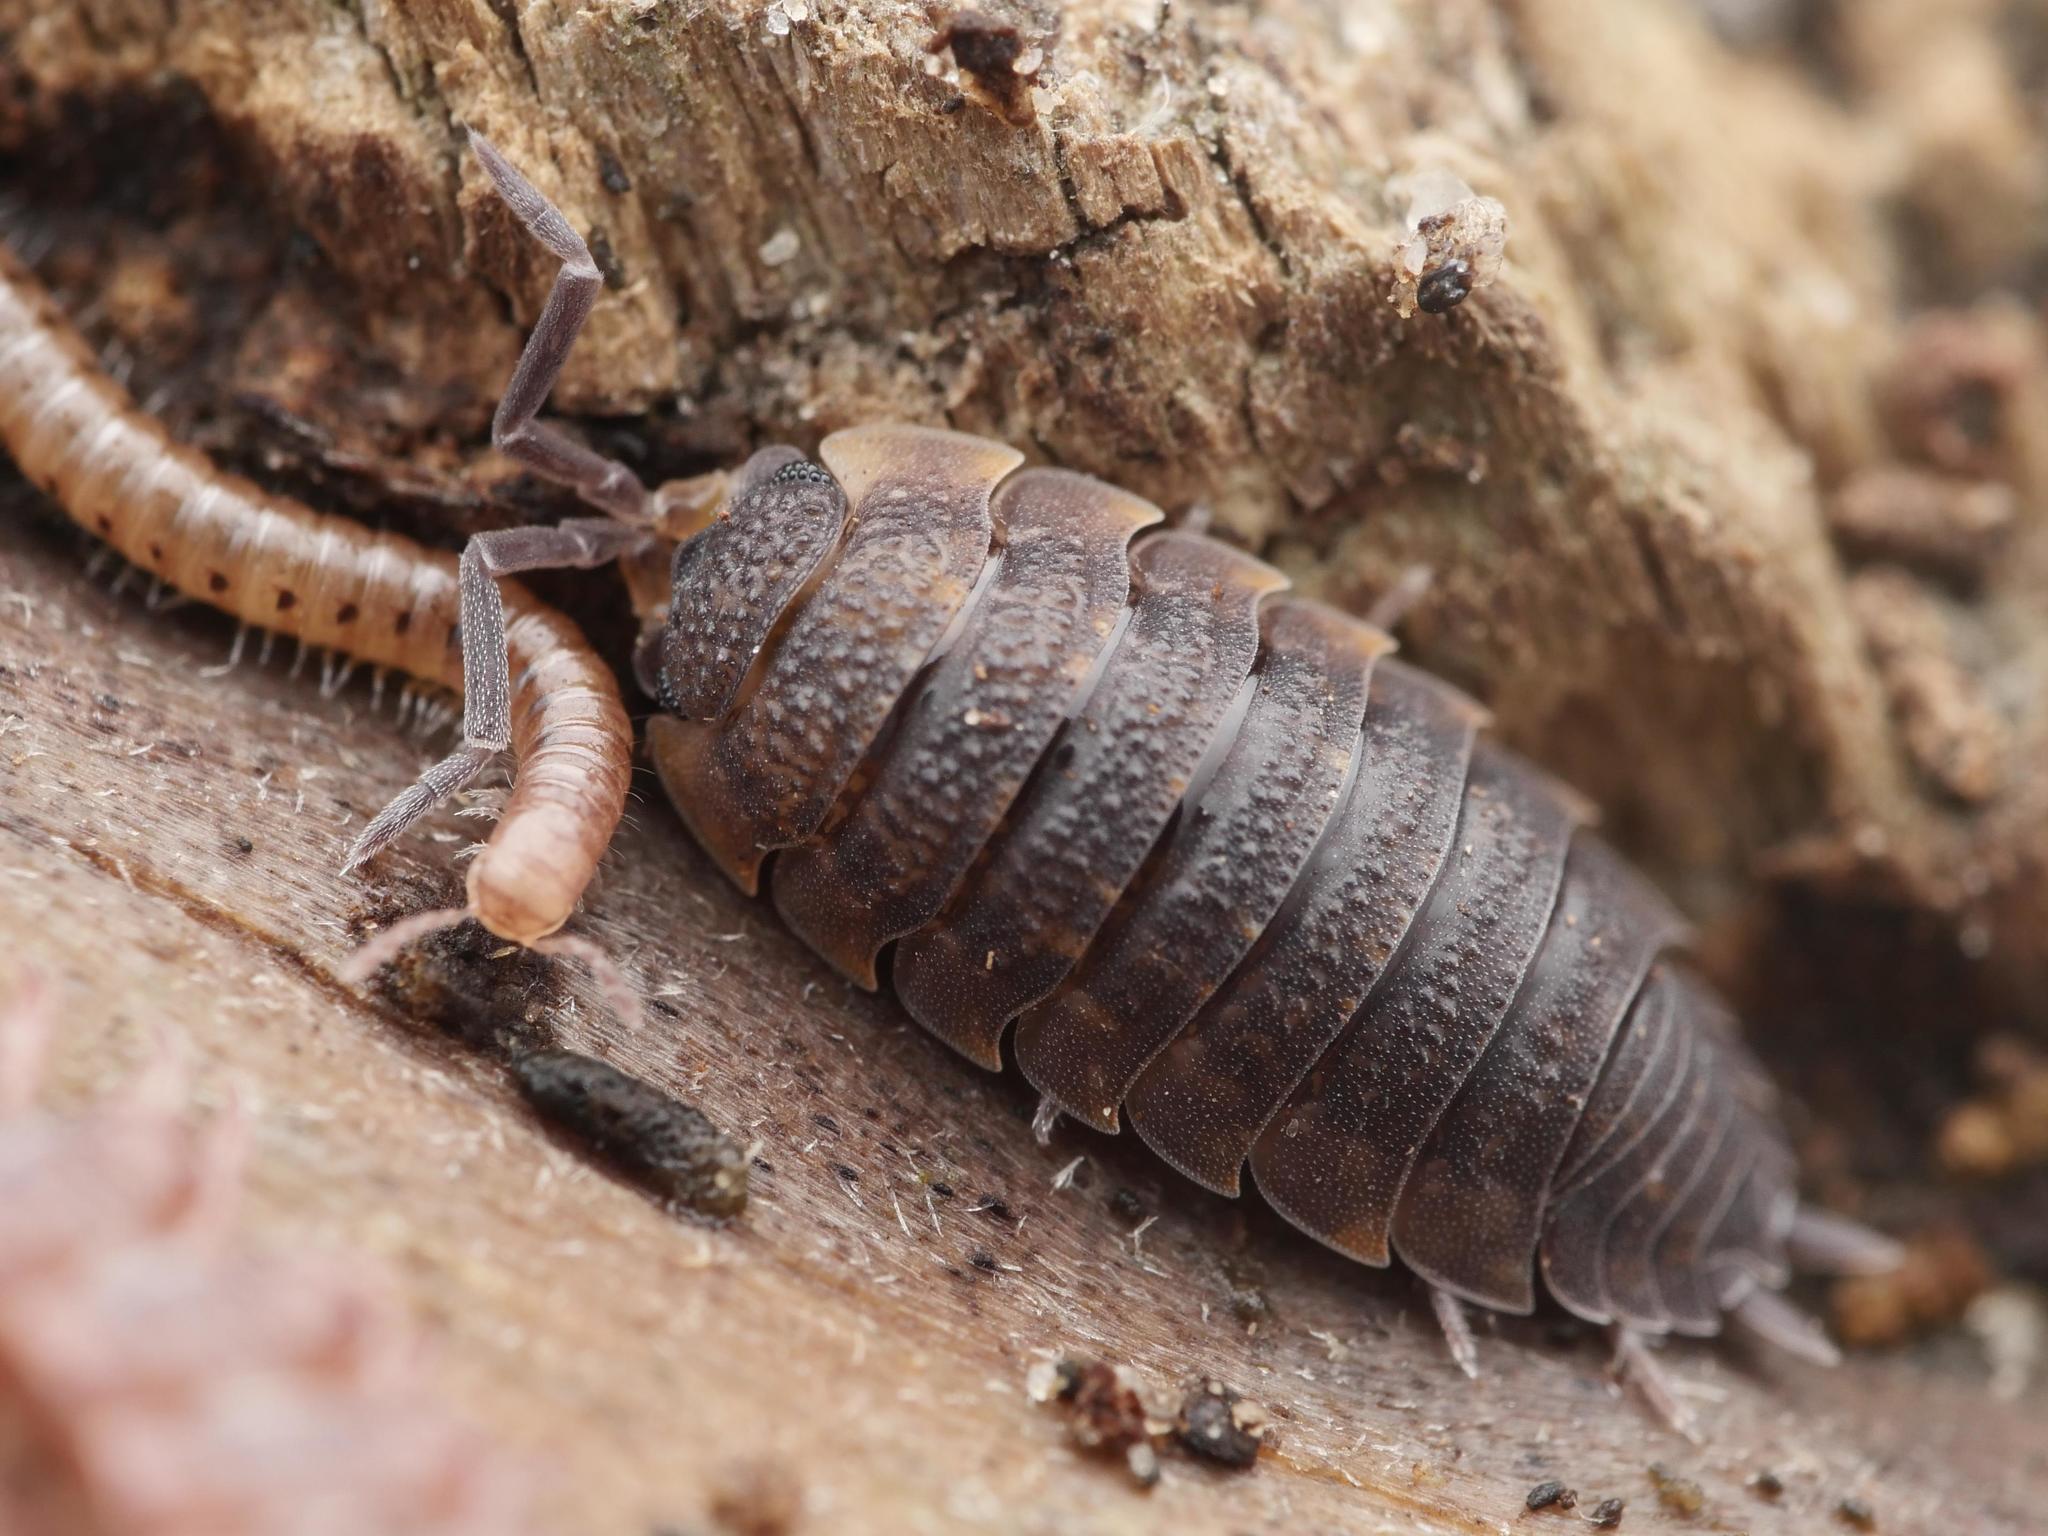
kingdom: Animalia
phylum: Arthropoda
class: Malacostraca
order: Isopoda
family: Porcellionidae
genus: Porcellio
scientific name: Porcellio scaber
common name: Common rough woodlouse
